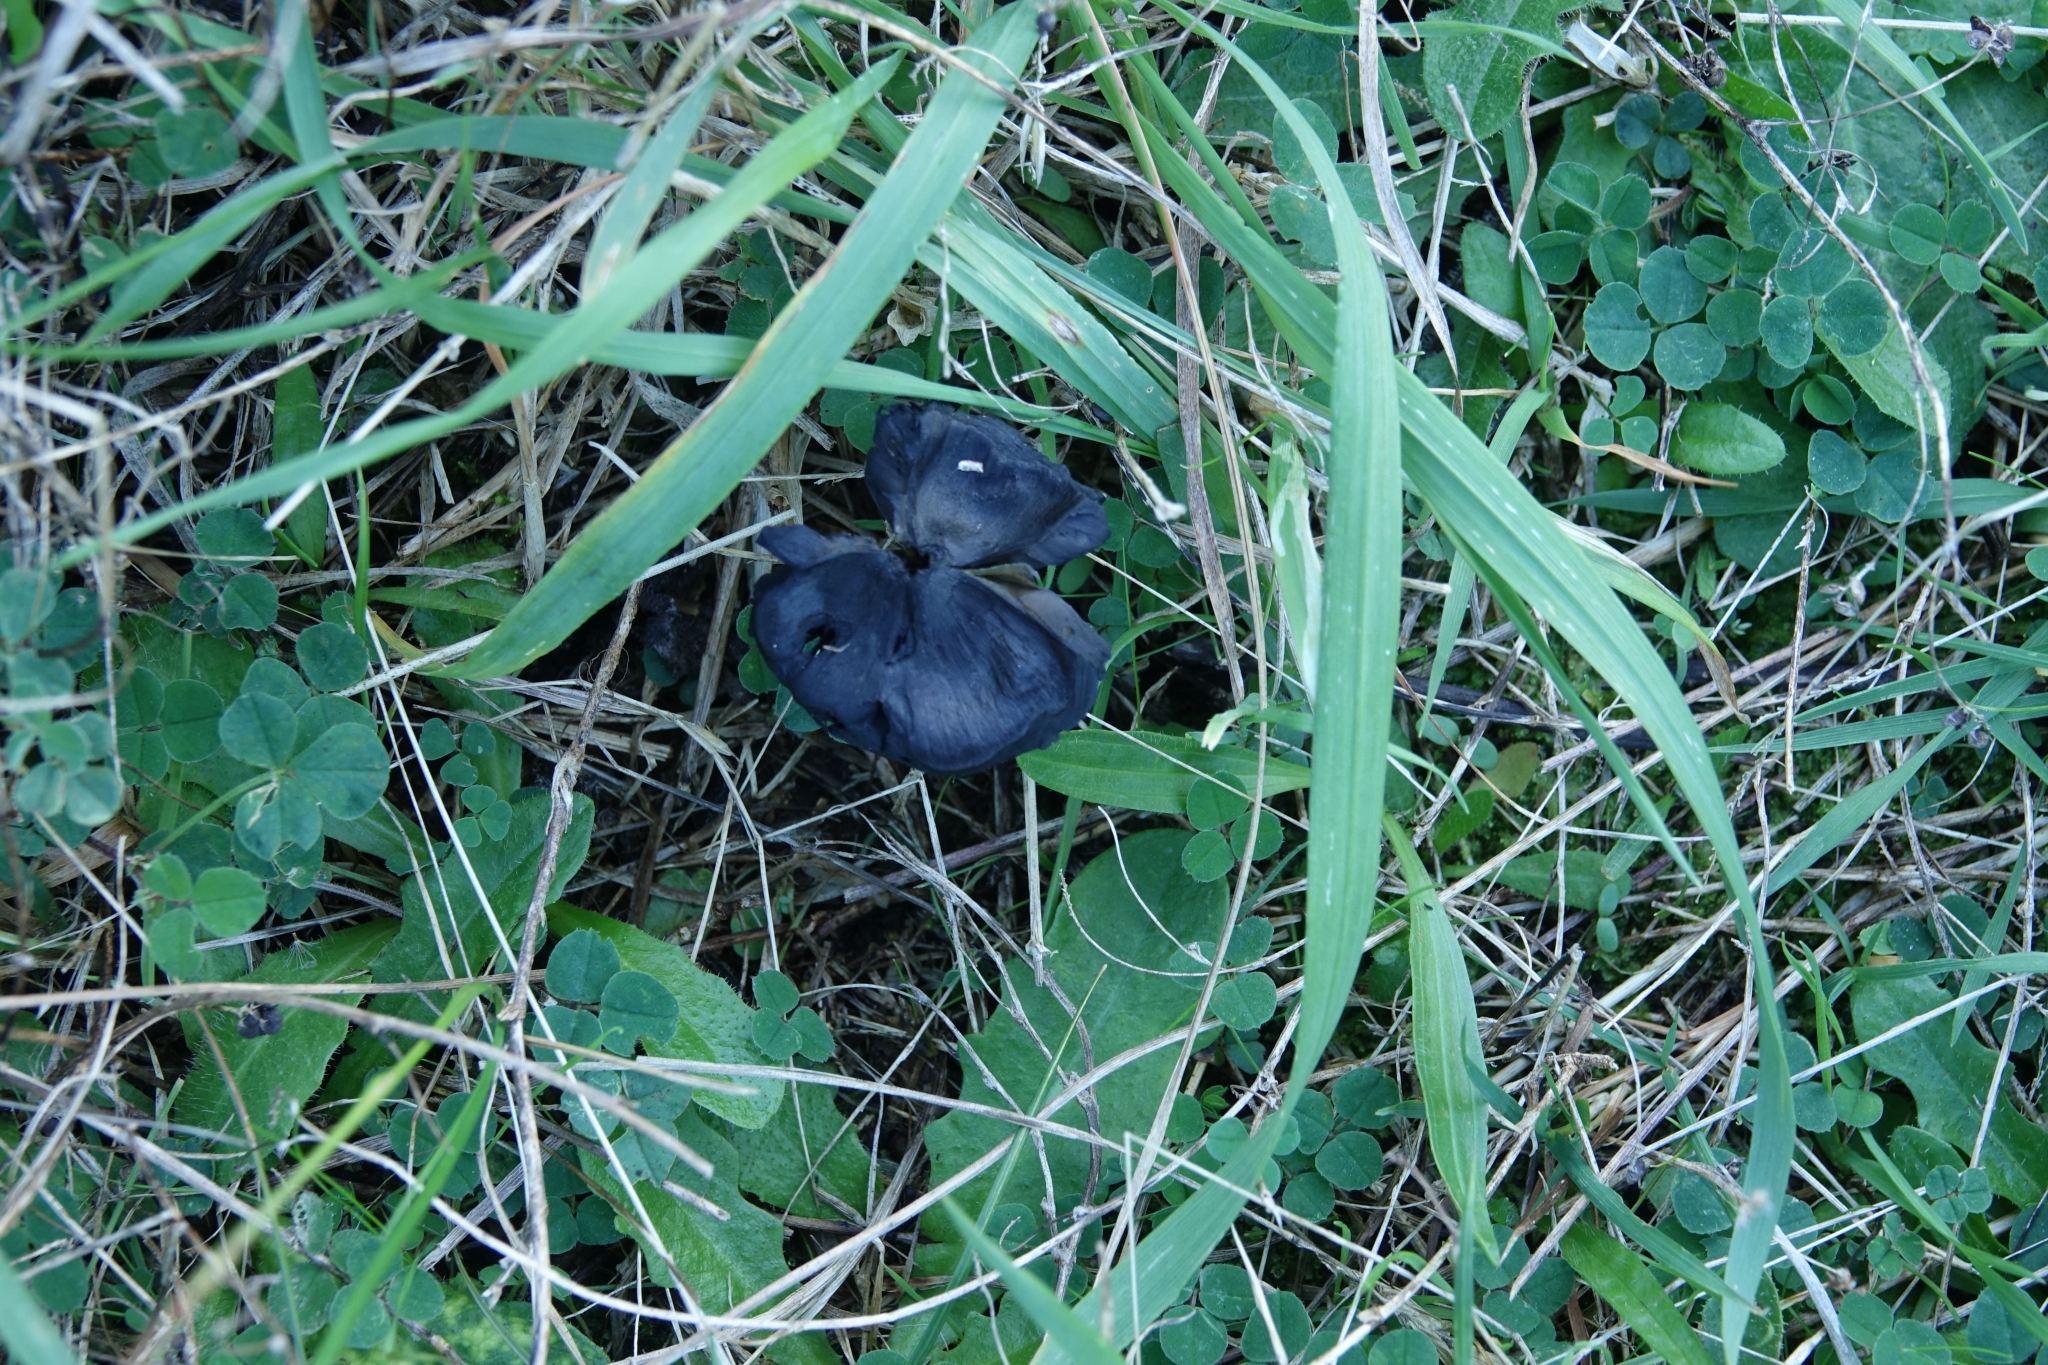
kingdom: Fungi
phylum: Basidiomycota
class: Agaricomycetes
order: Agaricales
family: Hygrophoraceae
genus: Hygrocybe
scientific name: Hygrocybe conica
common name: Blackening wax-cap
